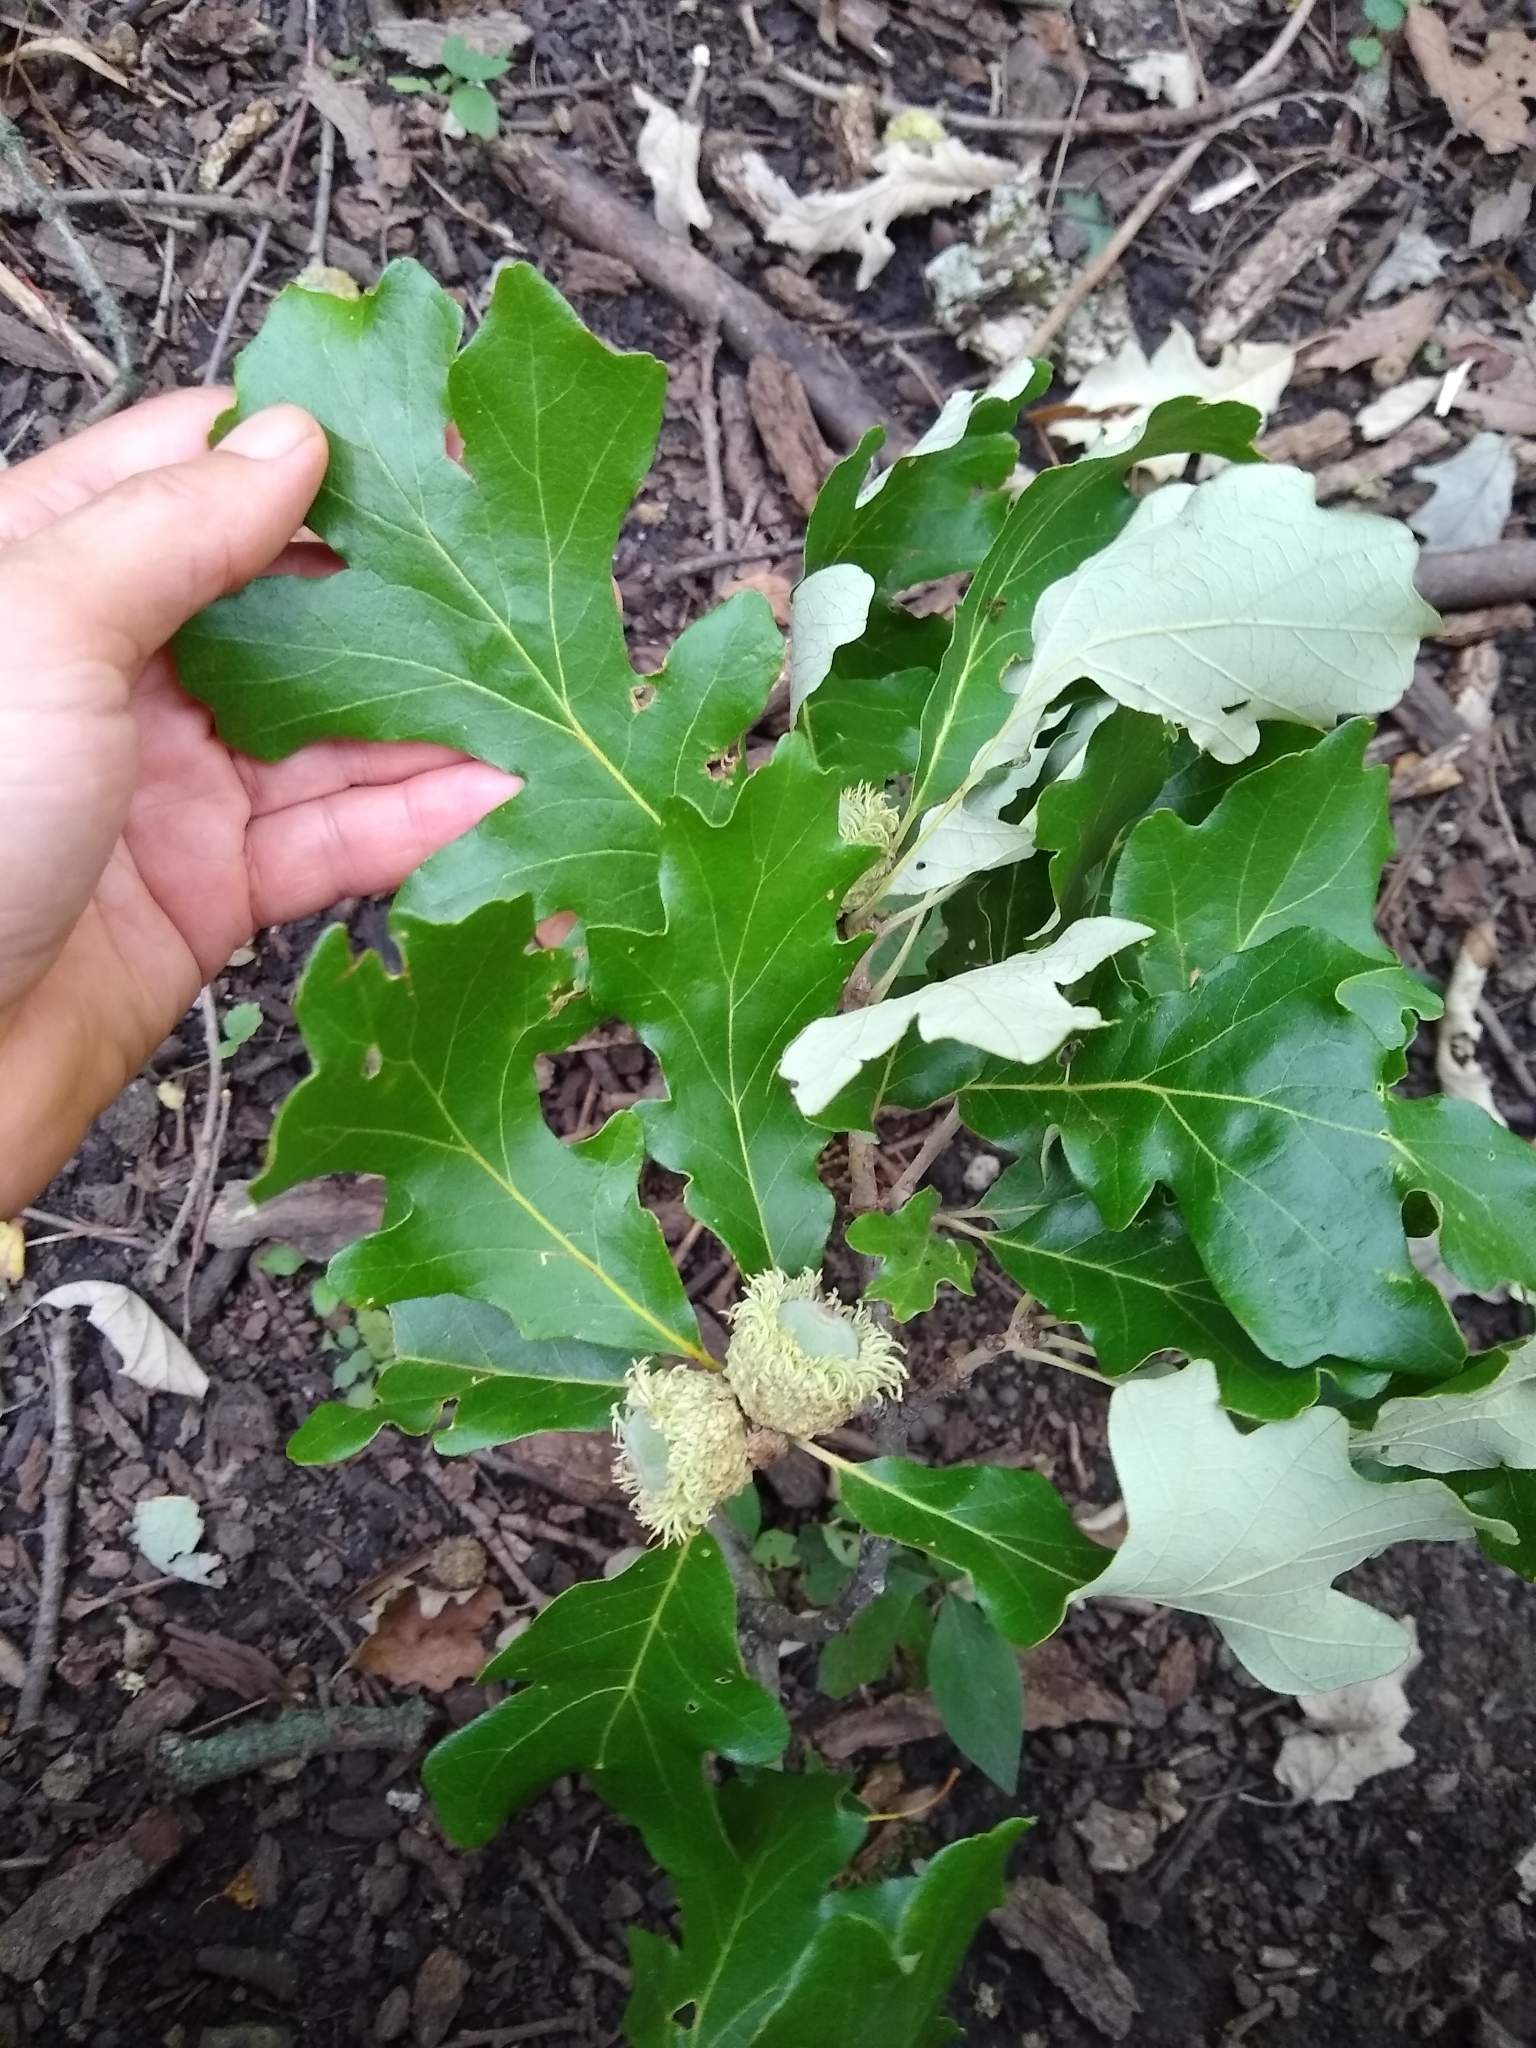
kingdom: Plantae
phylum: Tracheophyta
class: Magnoliopsida
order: Fagales
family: Fagaceae
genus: Quercus
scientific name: Quercus macrocarpa
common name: Bur oak
